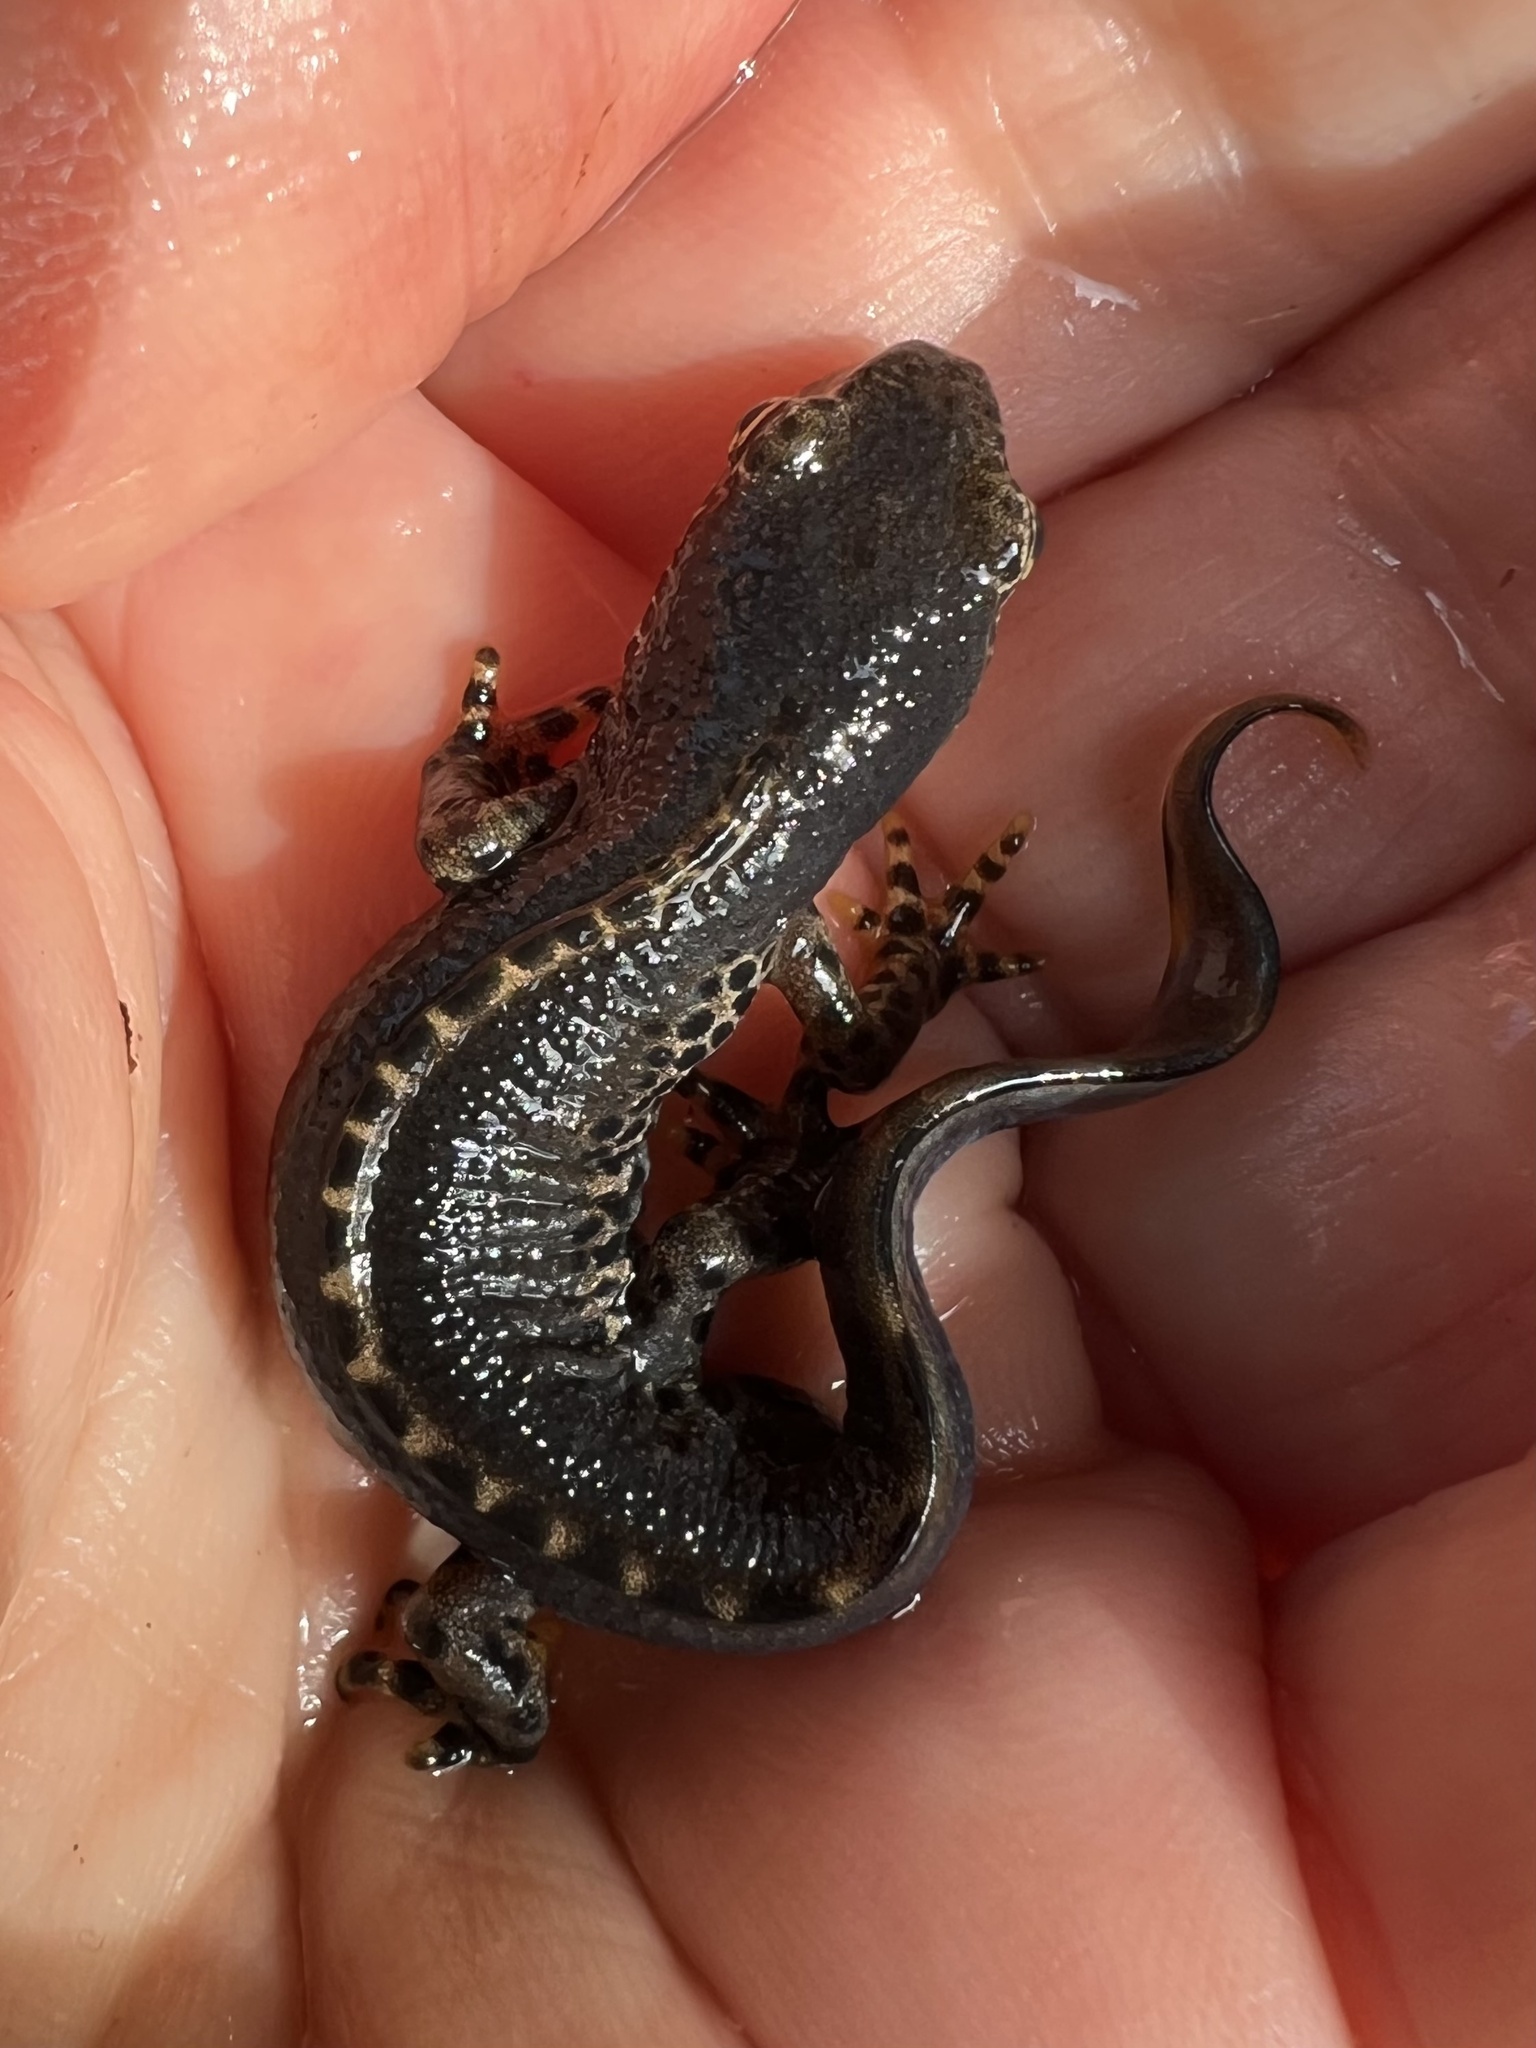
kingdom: Animalia
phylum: Chordata
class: Amphibia
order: Caudata
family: Salamandridae
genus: Ichthyosaura
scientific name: Ichthyosaura alpestris
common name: Alpine newt
